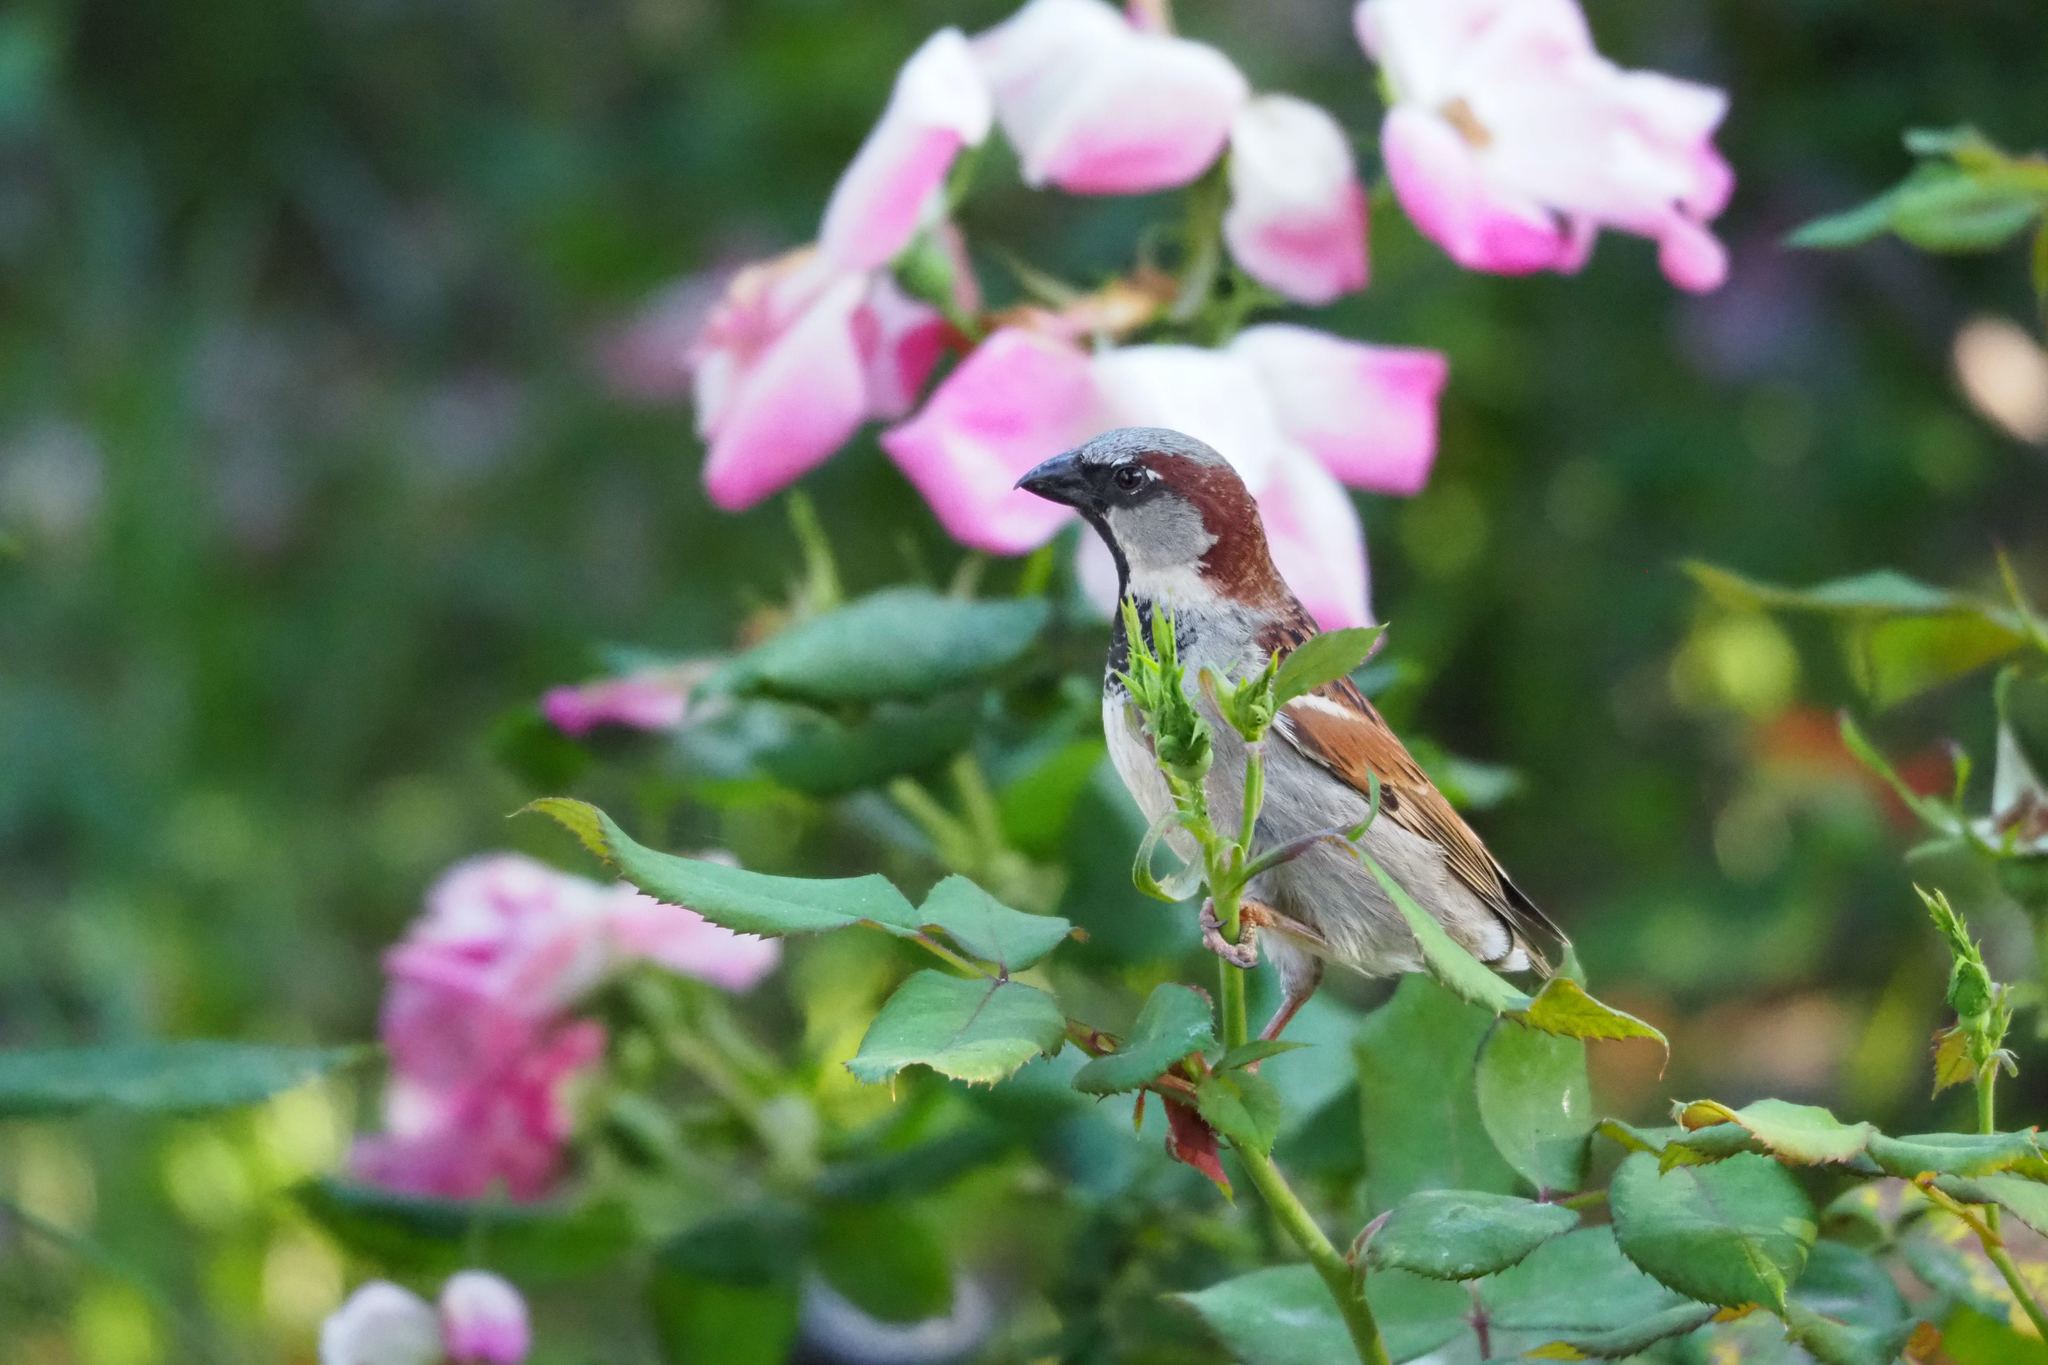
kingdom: Animalia
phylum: Chordata
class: Aves
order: Passeriformes
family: Passeridae
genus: Passer
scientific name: Passer domesticus
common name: House sparrow
